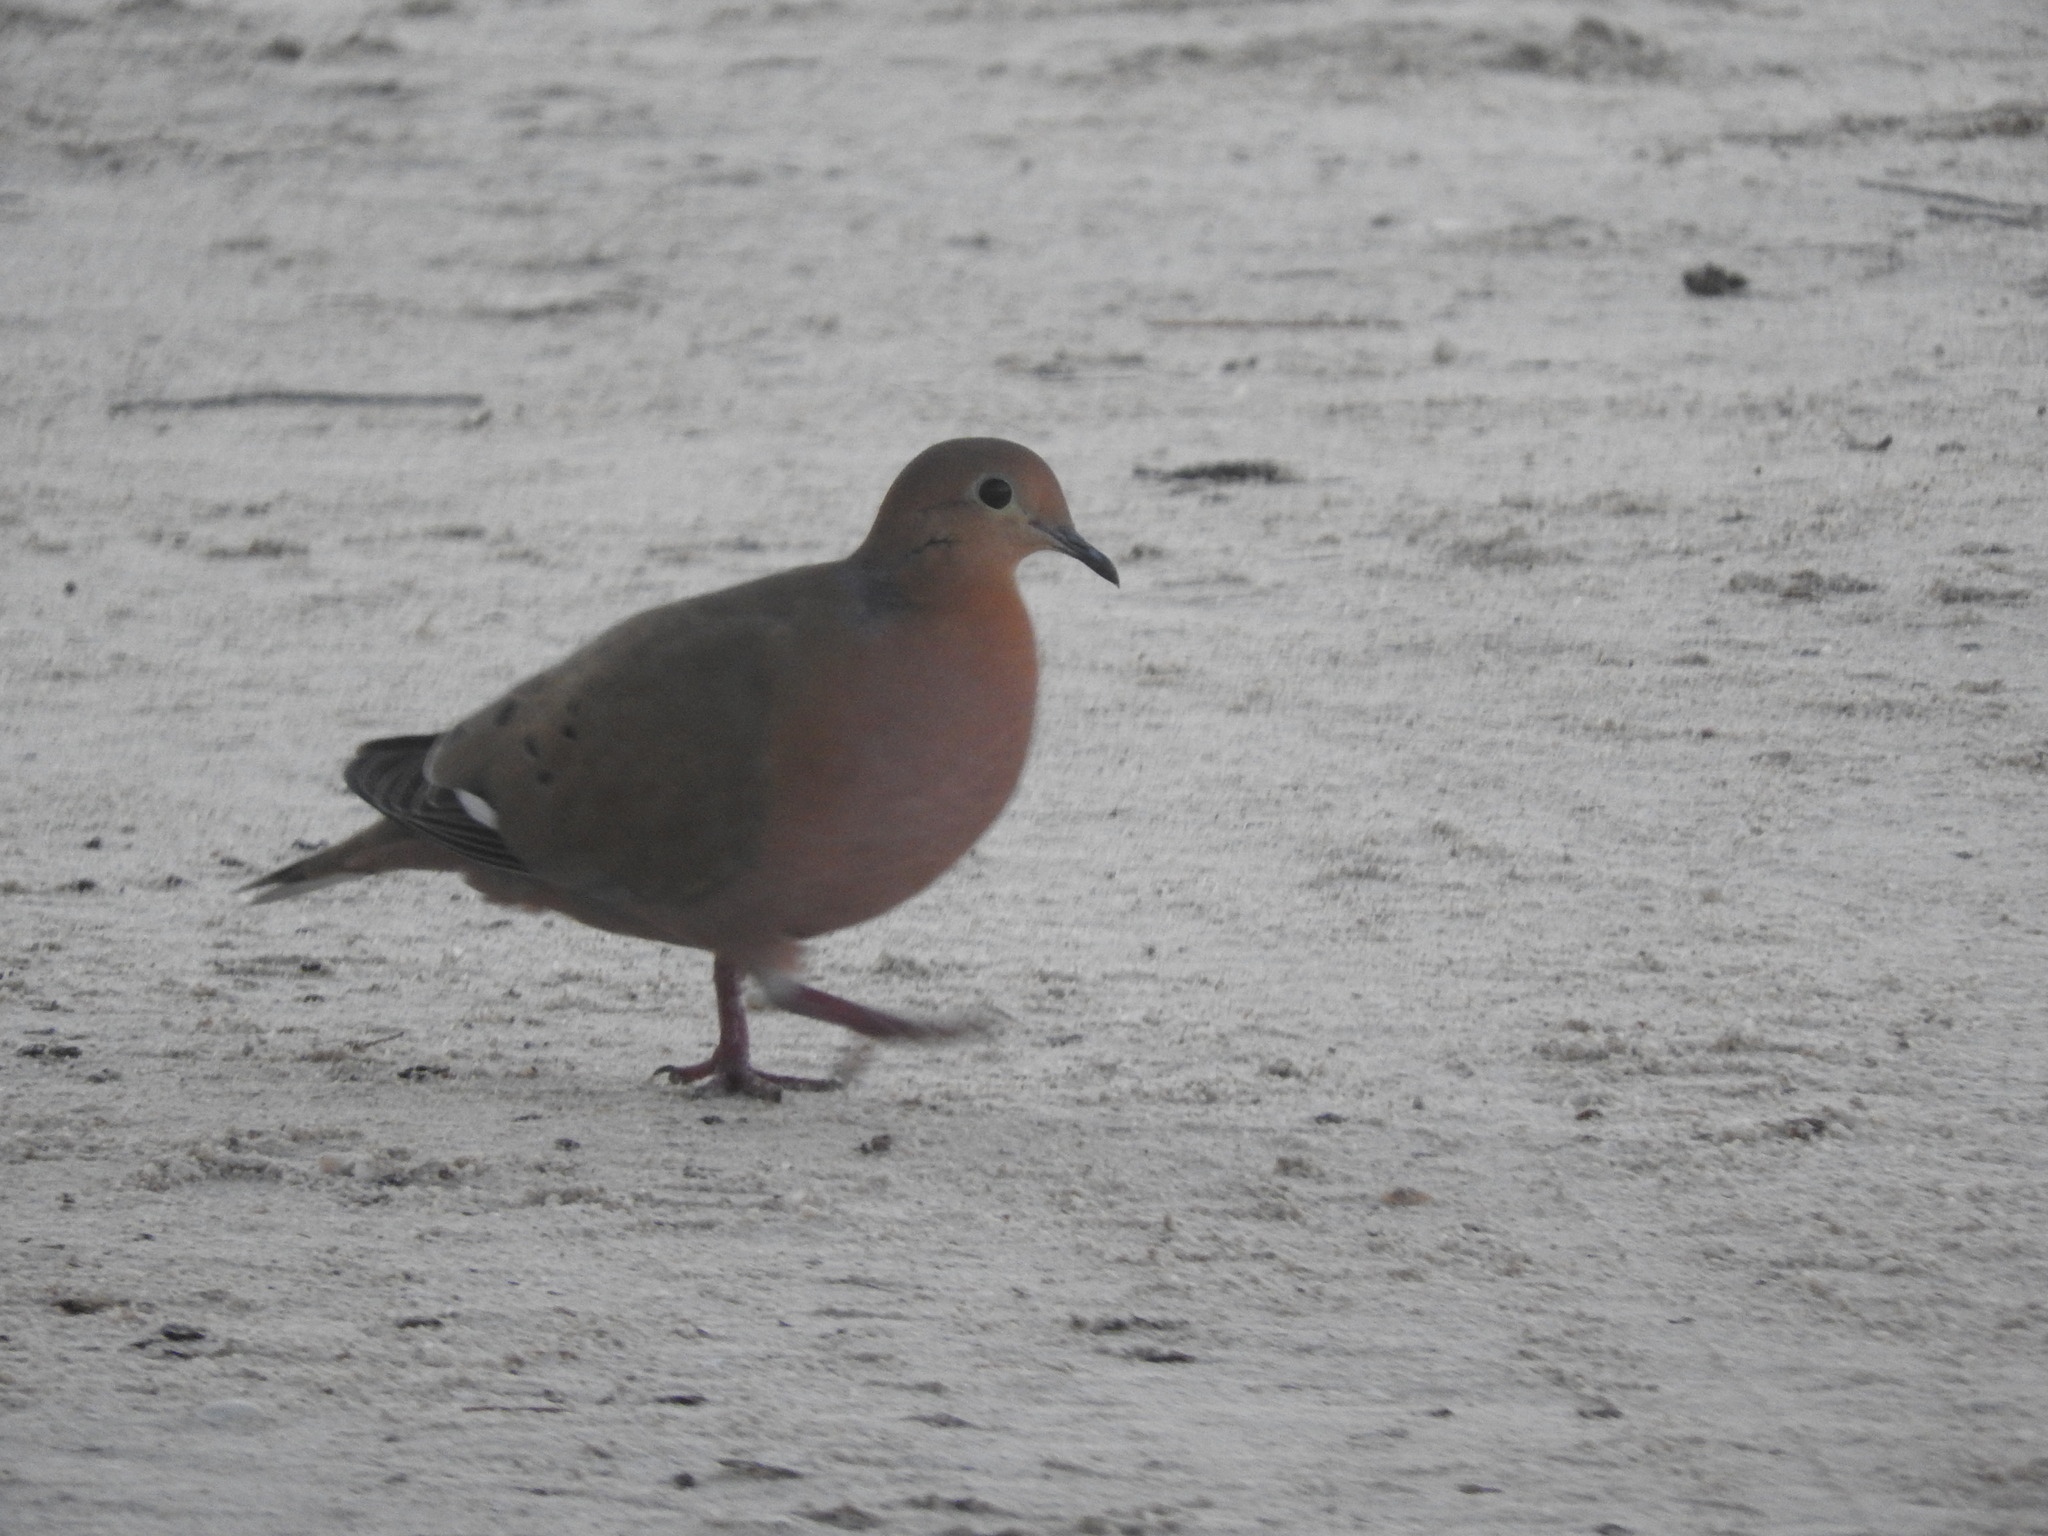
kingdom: Animalia
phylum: Chordata
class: Aves
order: Columbiformes
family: Columbidae
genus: Zenaida
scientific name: Zenaida aurita
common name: Zenaida dove
